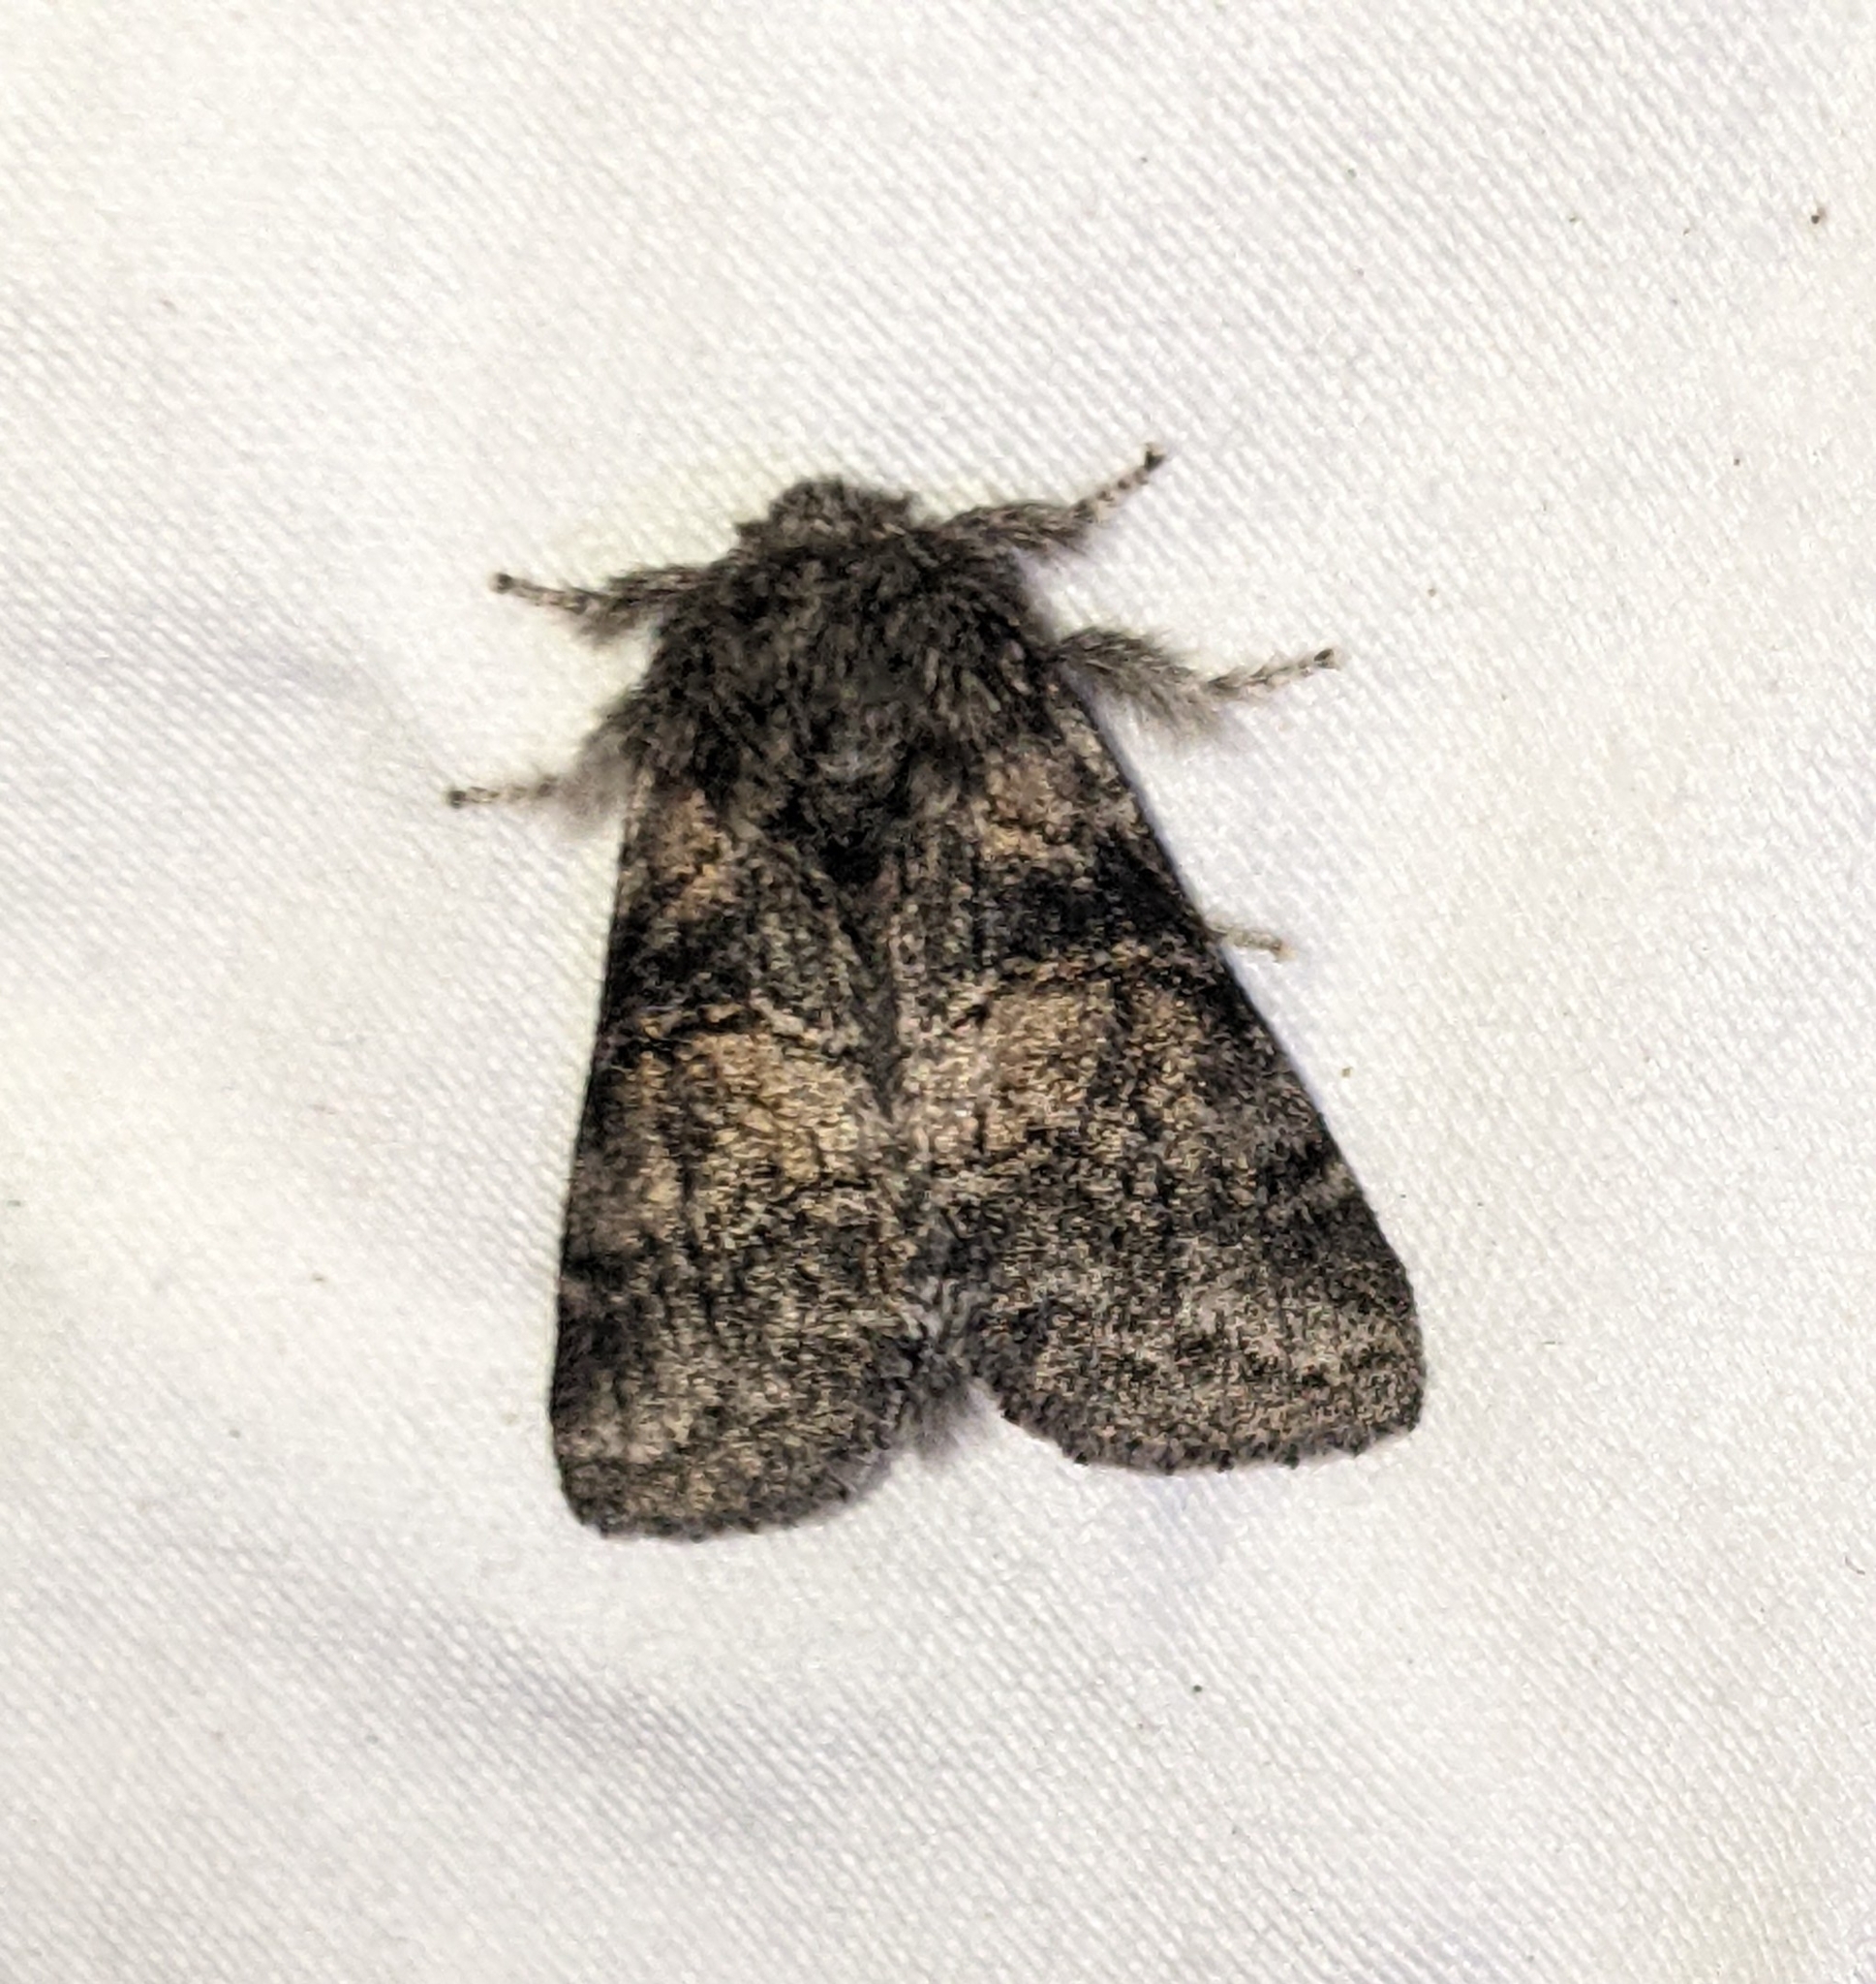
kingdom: Animalia
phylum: Arthropoda
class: Insecta
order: Lepidoptera
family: Notodontidae
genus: Gluphisia
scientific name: Gluphisia septentrionis
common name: Common gluphisia
